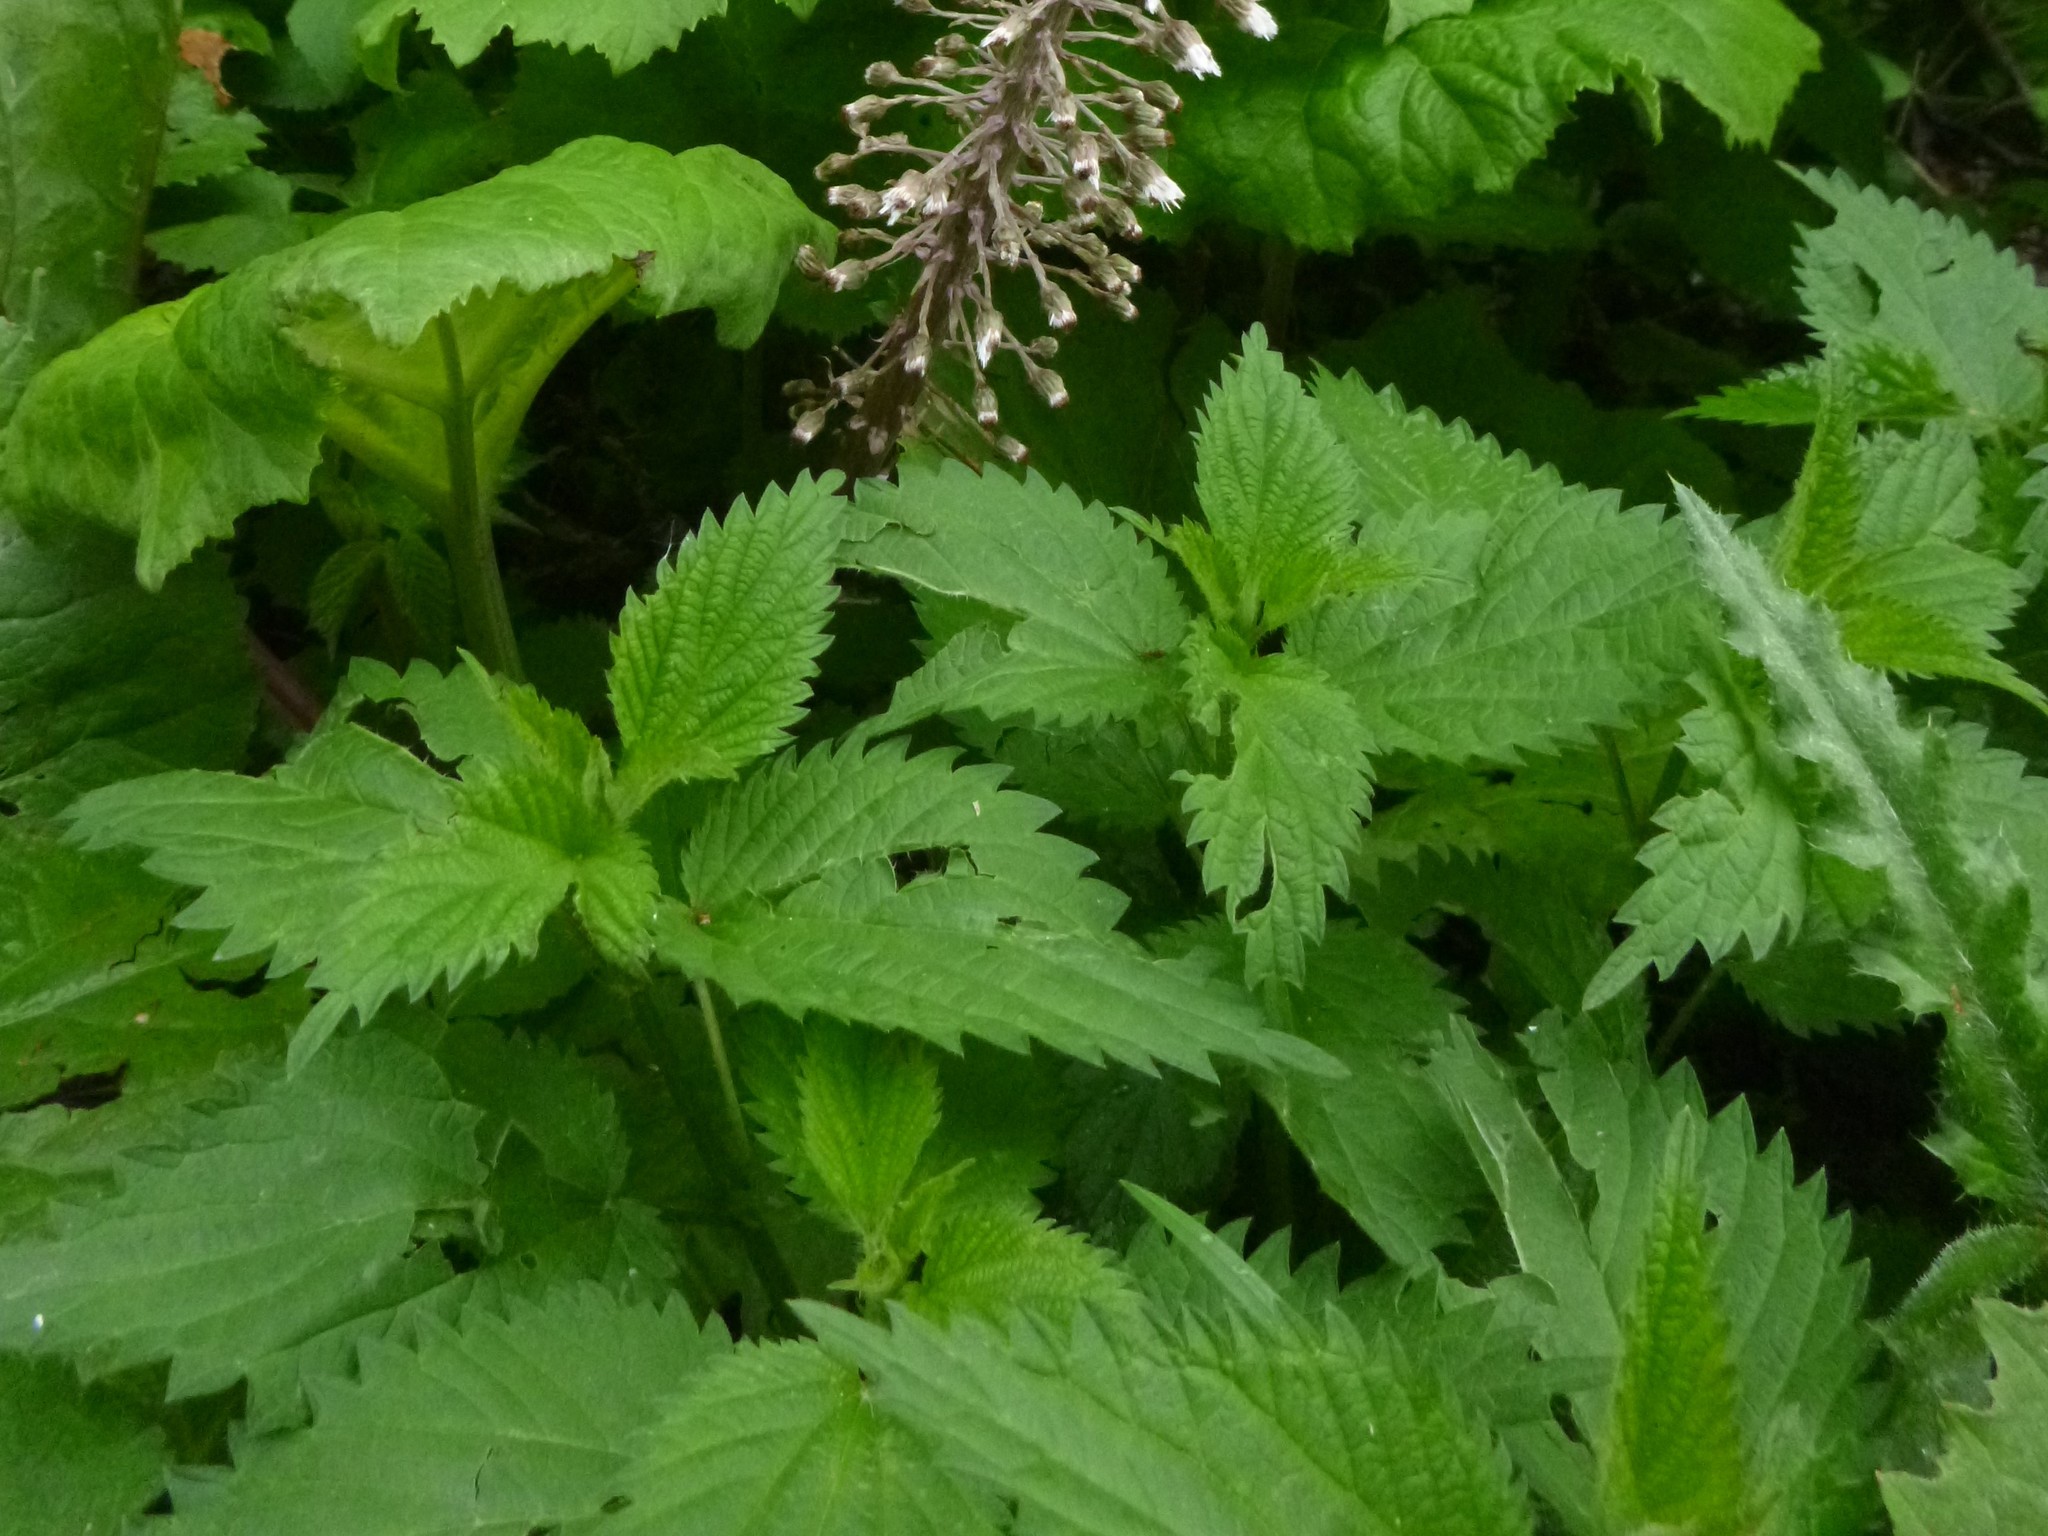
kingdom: Plantae
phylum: Tracheophyta
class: Magnoliopsida
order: Rosales
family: Urticaceae
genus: Urtica
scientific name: Urtica dioica
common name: Common nettle
